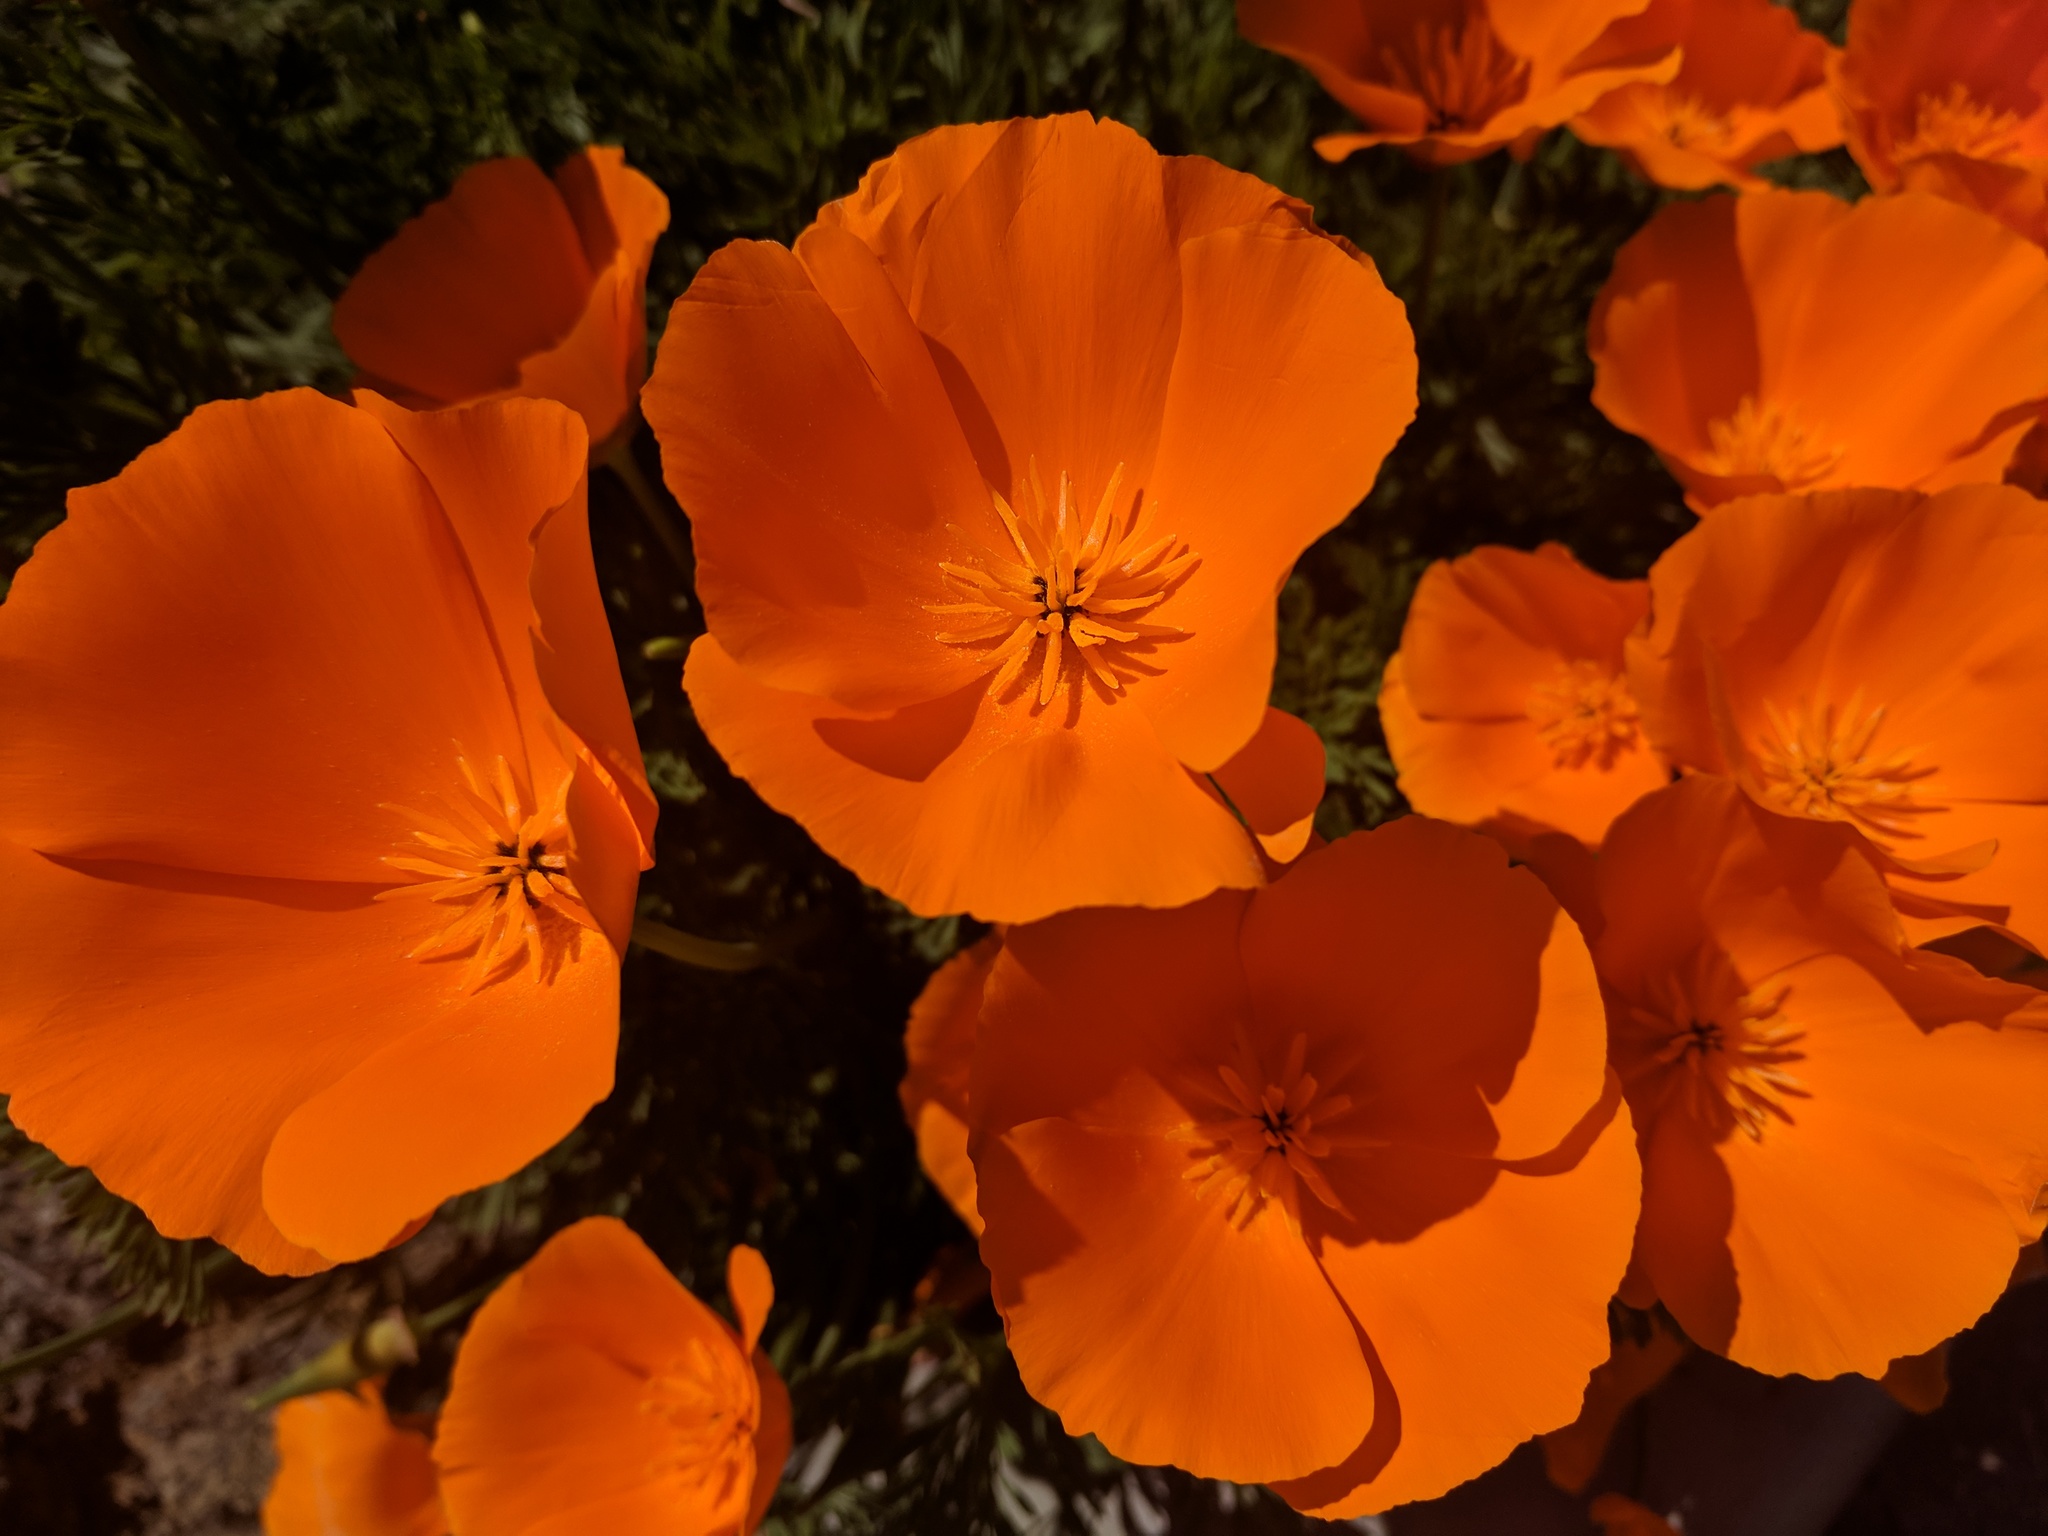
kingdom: Plantae
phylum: Tracheophyta
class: Magnoliopsida
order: Ranunculales
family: Papaveraceae
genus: Eschscholzia
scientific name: Eschscholzia californica
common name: California poppy
